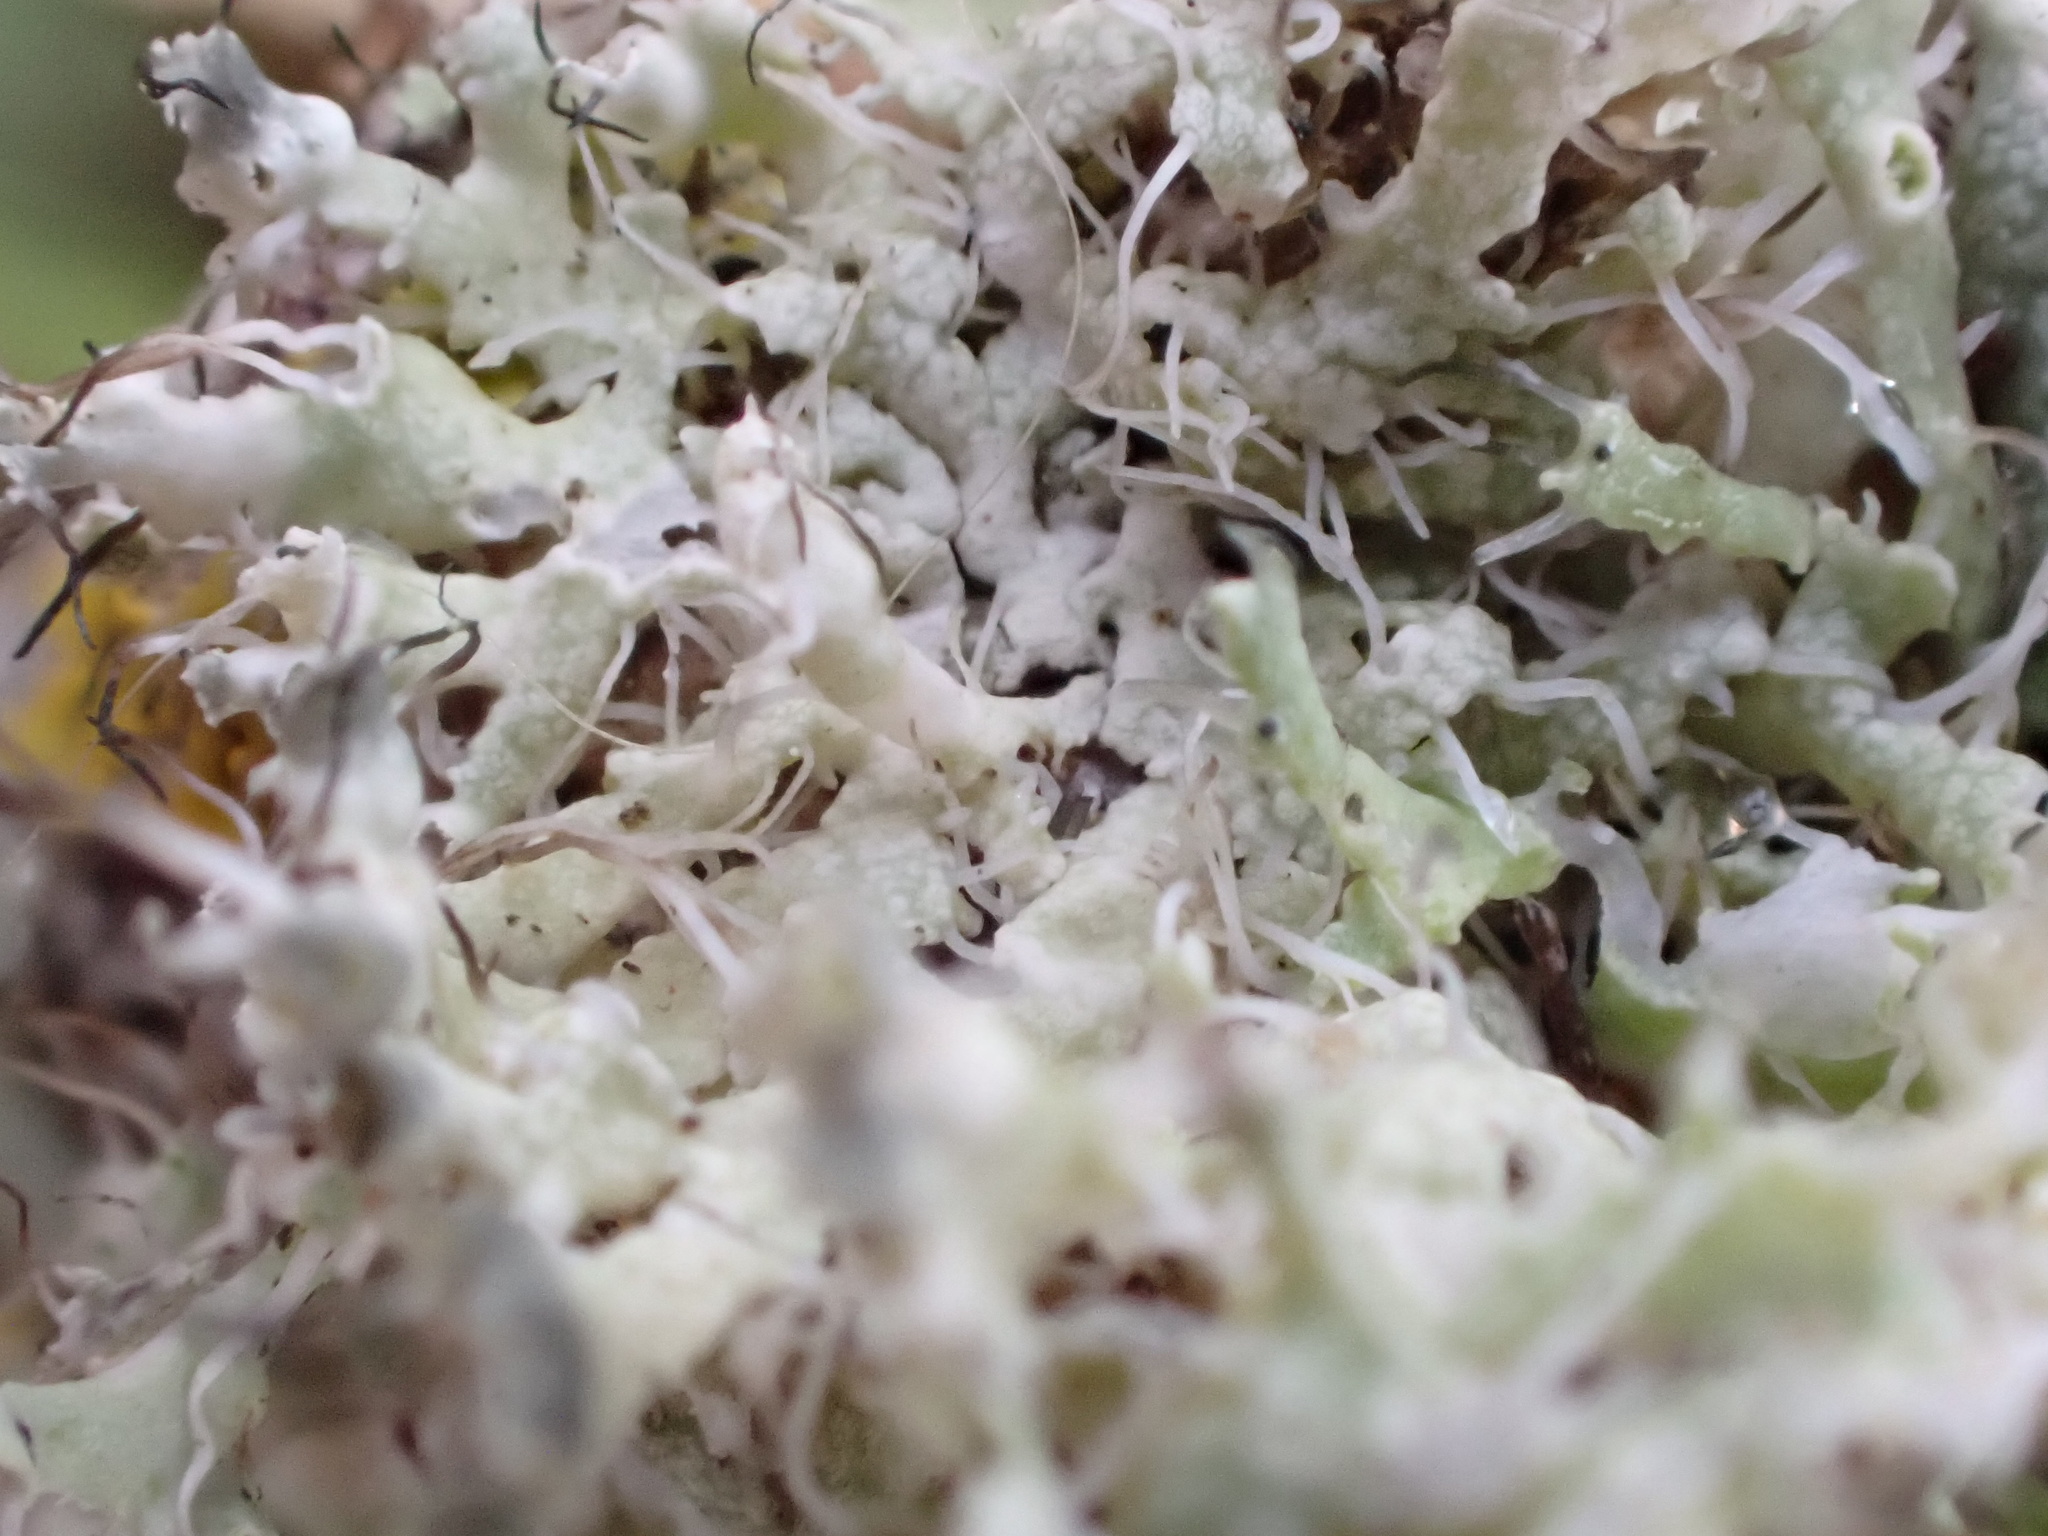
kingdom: Fungi
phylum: Ascomycota
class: Lecanoromycetes
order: Caliciales
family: Physciaceae
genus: Physcia
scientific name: Physcia adscendens
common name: Hooded rosette lichen
